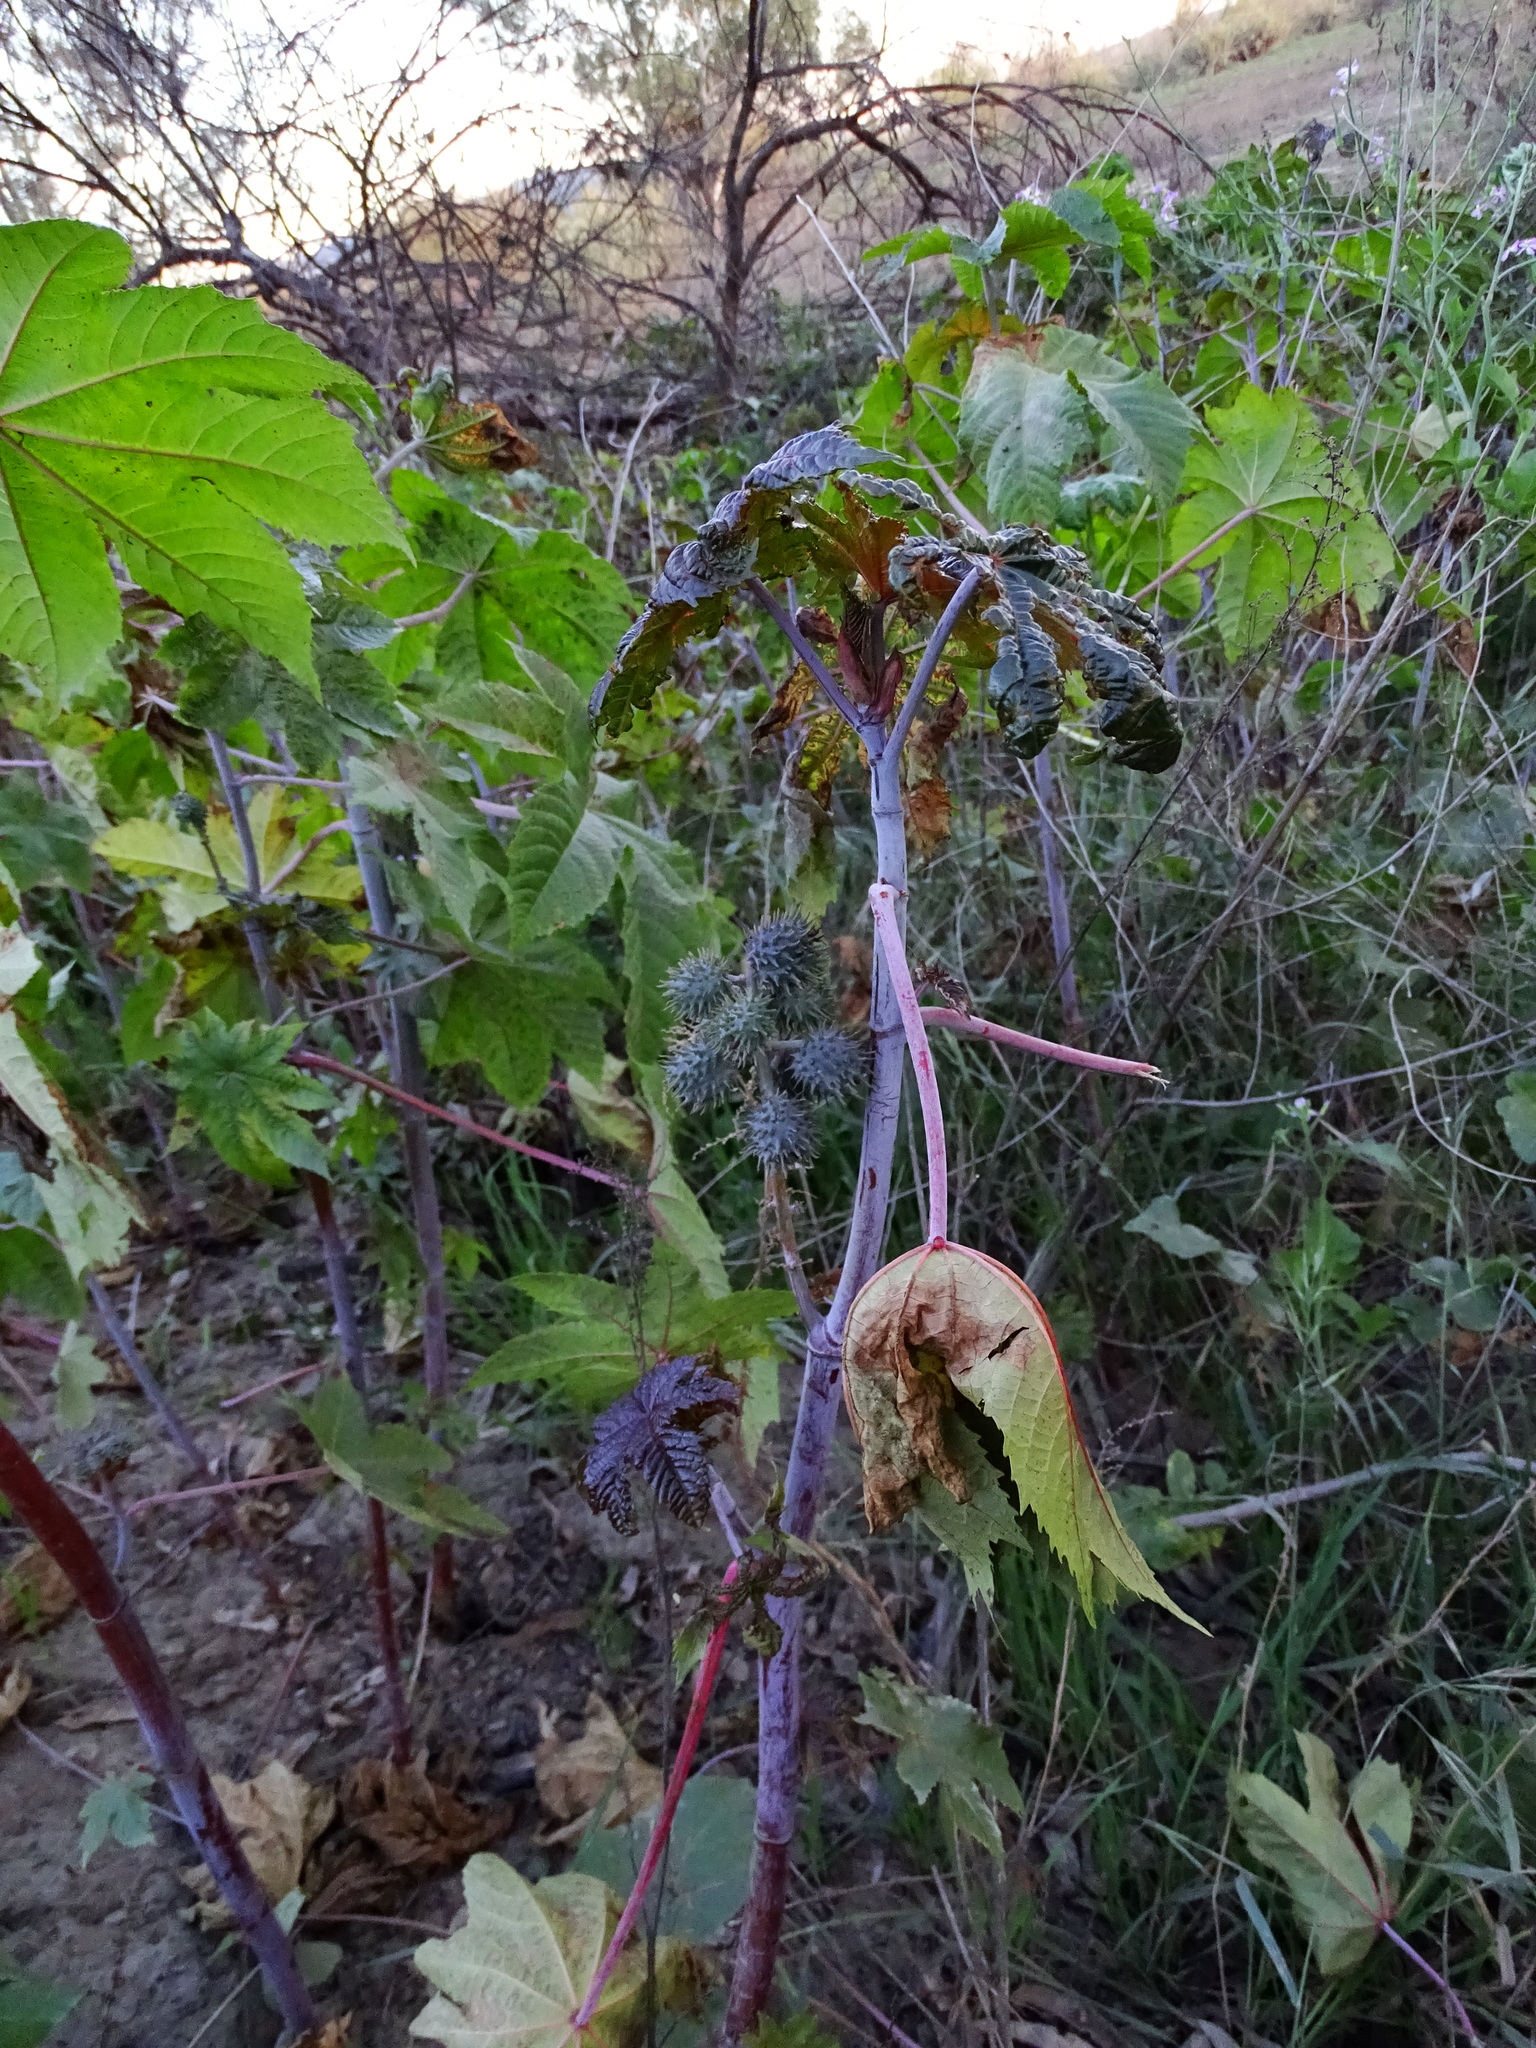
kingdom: Plantae
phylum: Tracheophyta
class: Magnoliopsida
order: Malpighiales
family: Euphorbiaceae
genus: Ricinus
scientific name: Ricinus communis
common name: Castor-oil-plant
